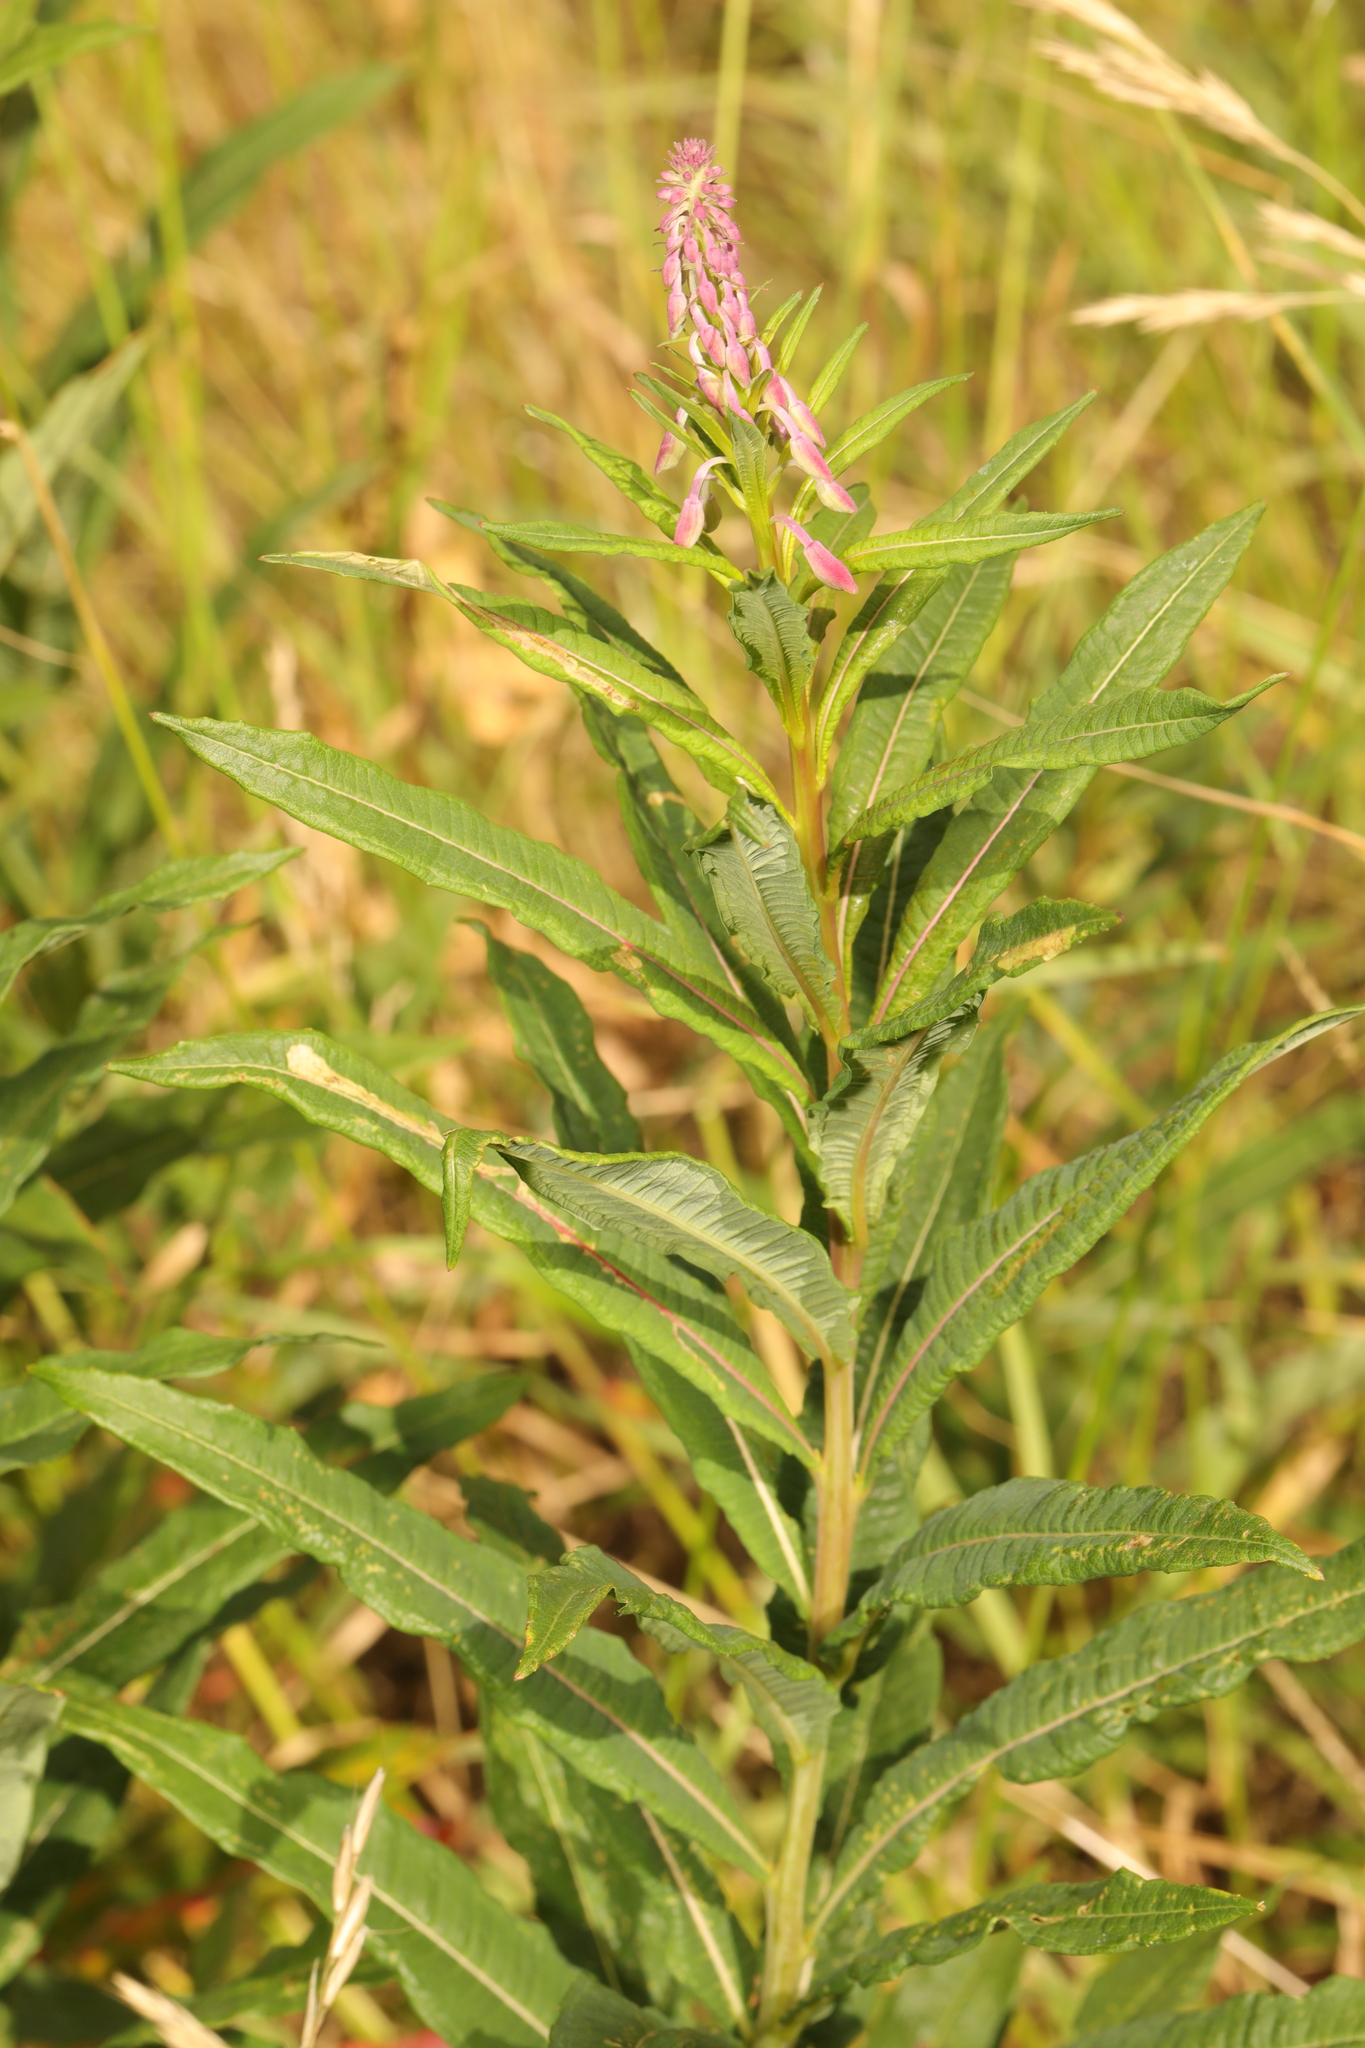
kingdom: Plantae
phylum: Tracheophyta
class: Magnoliopsida
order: Myrtales
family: Onagraceae
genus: Chamaenerion
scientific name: Chamaenerion angustifolium
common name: Fireweed
